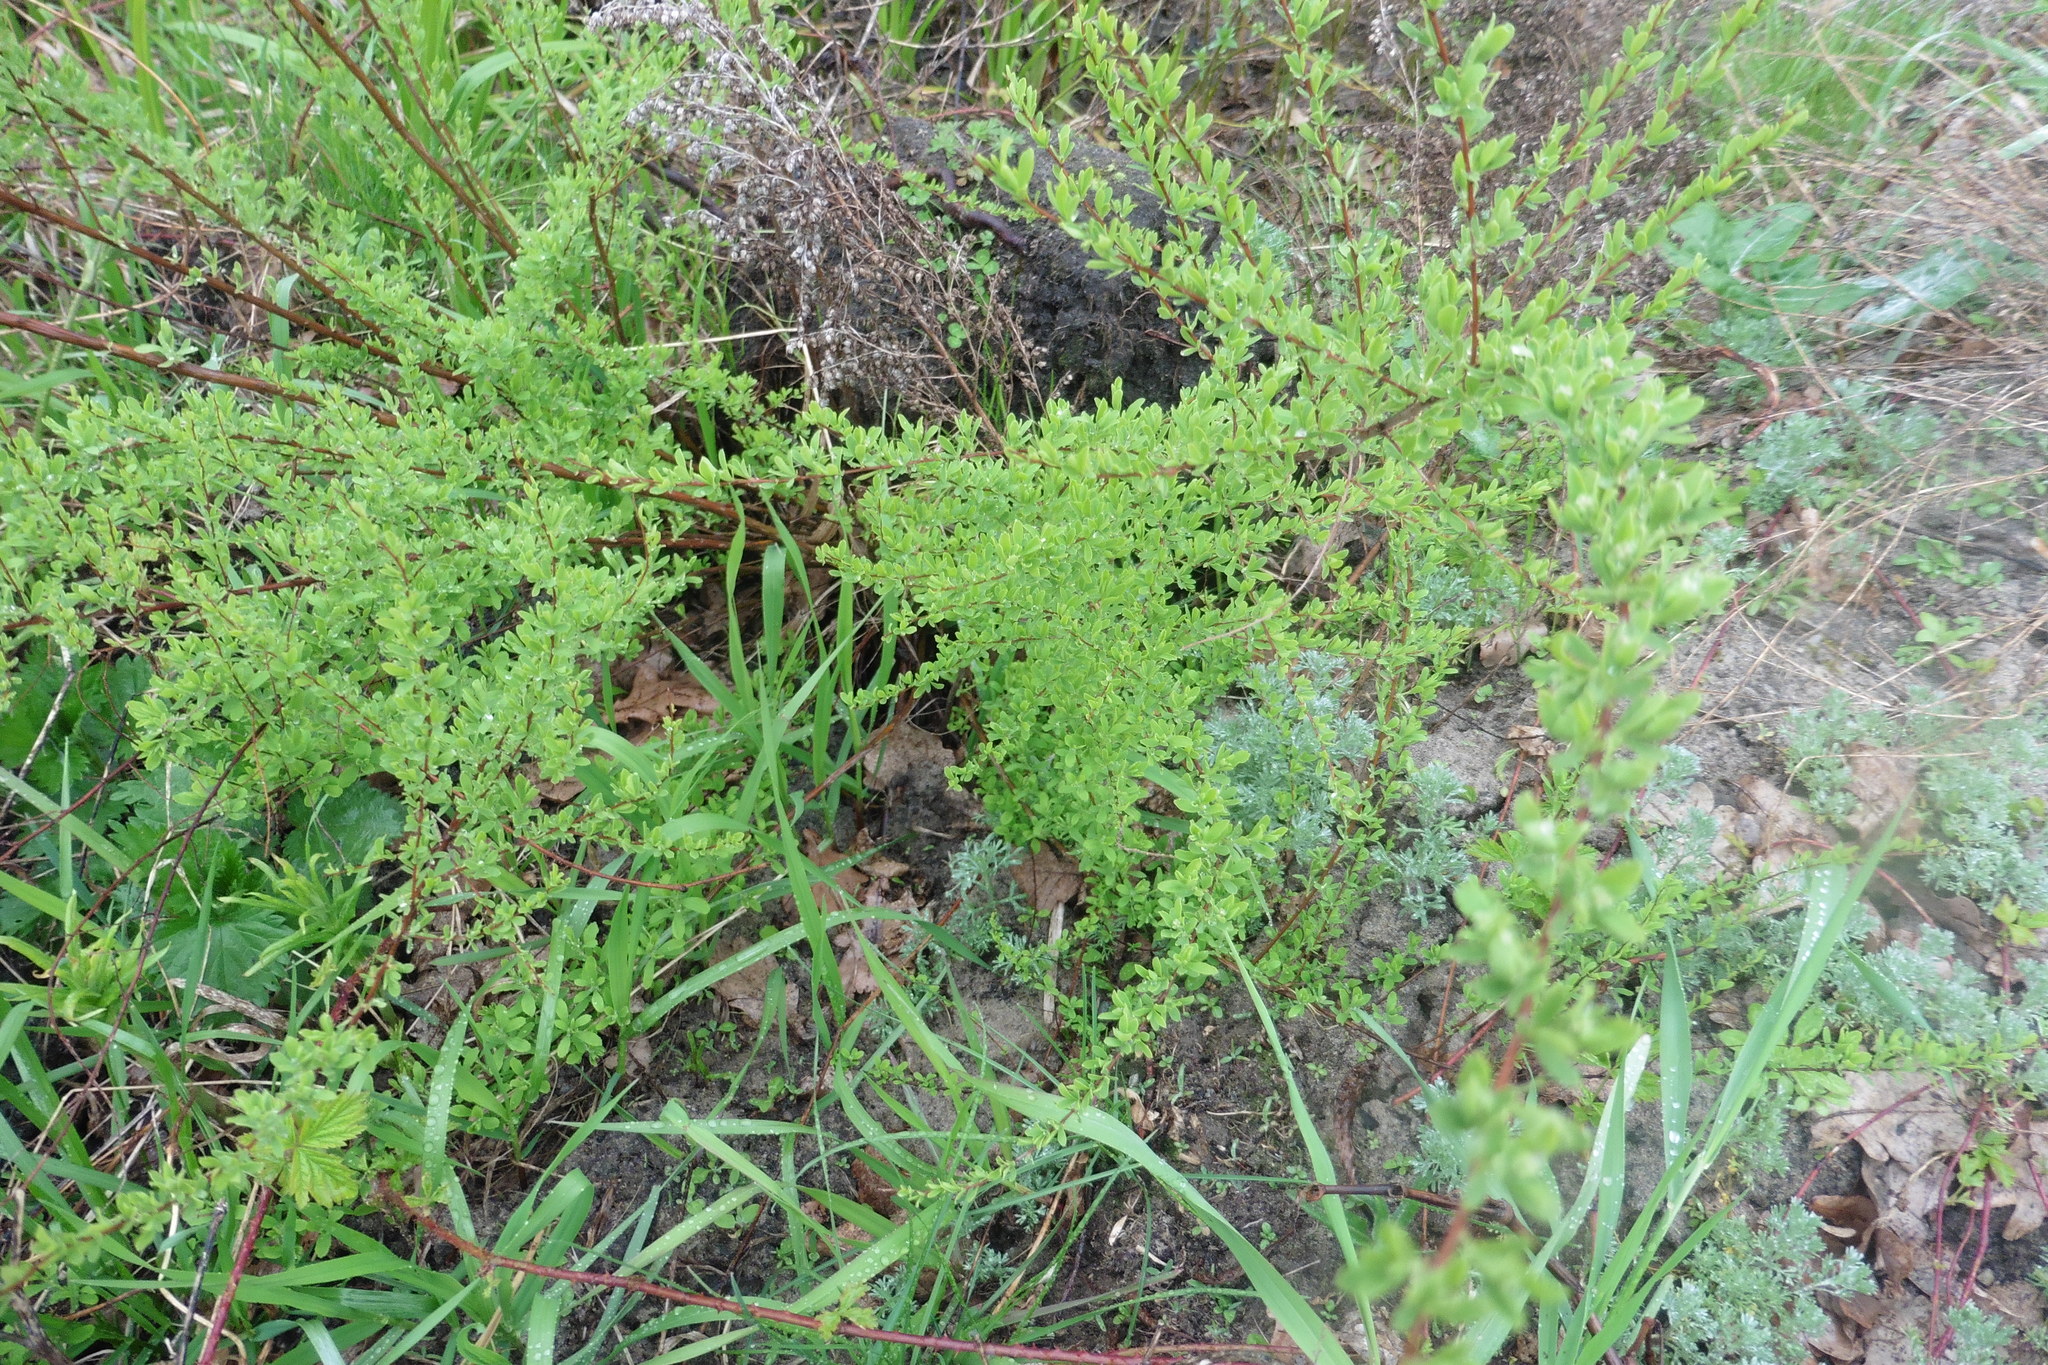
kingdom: Plantae
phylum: Tracheophyta
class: Magnoliopsida
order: Rosales
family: Rosaceae
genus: Spiraea
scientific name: Spiraea crenata
